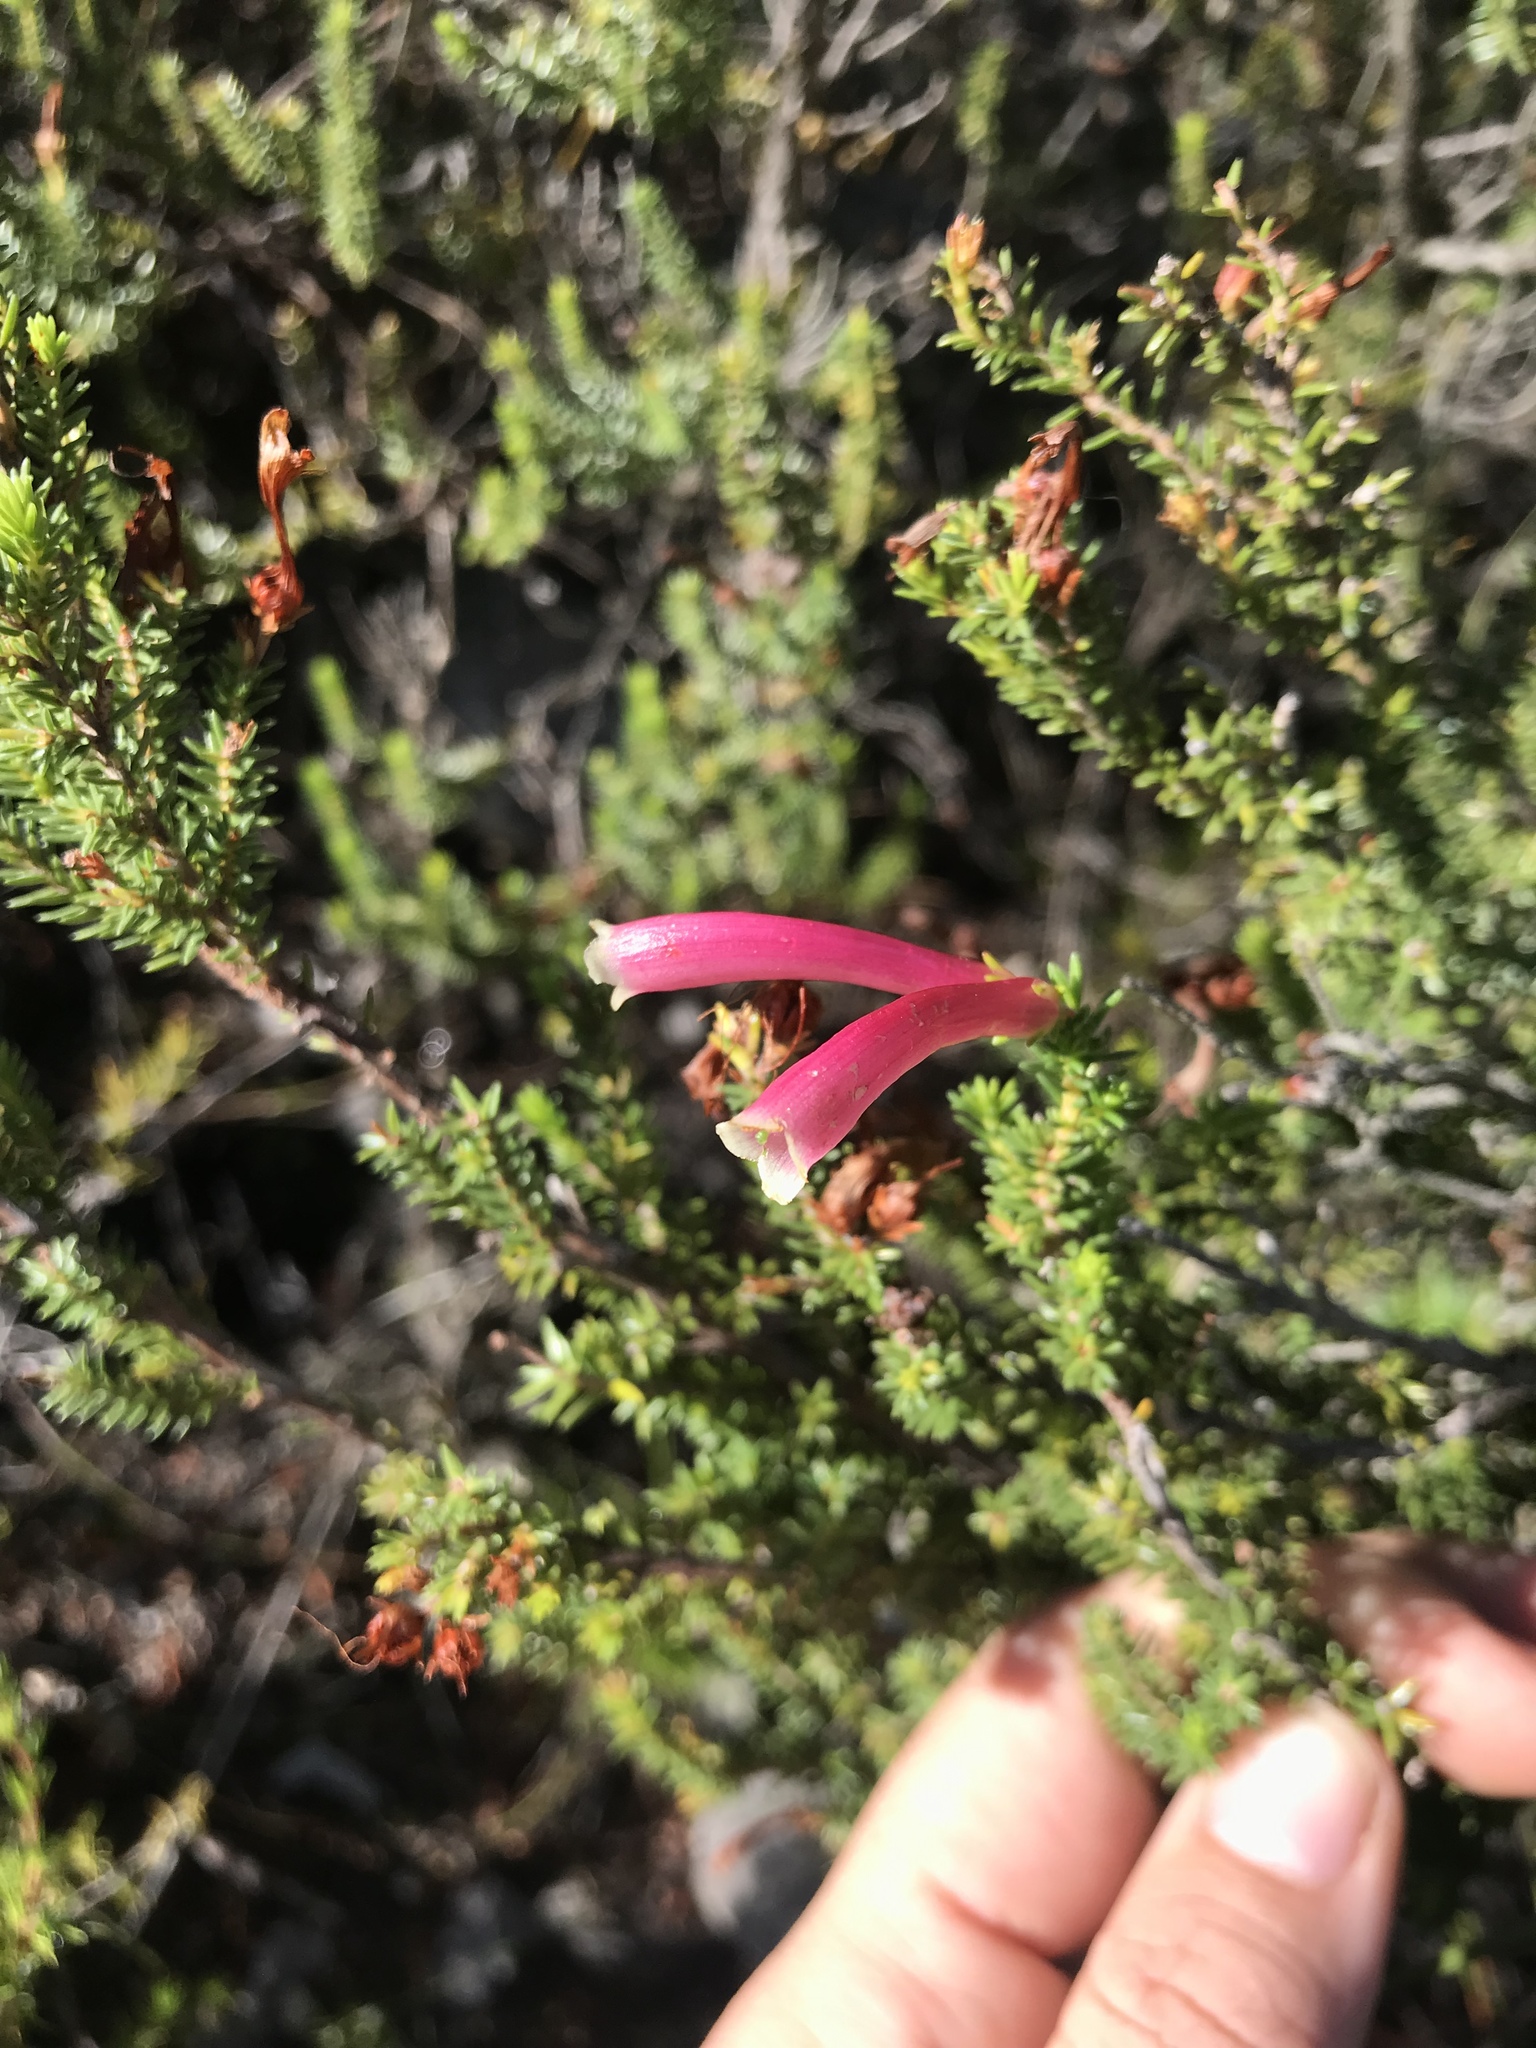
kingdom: Plantae
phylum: Tracheophyta
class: Magnoliopsida
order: Ericales
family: Ericaceae
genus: Erica
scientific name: Erica discolor
